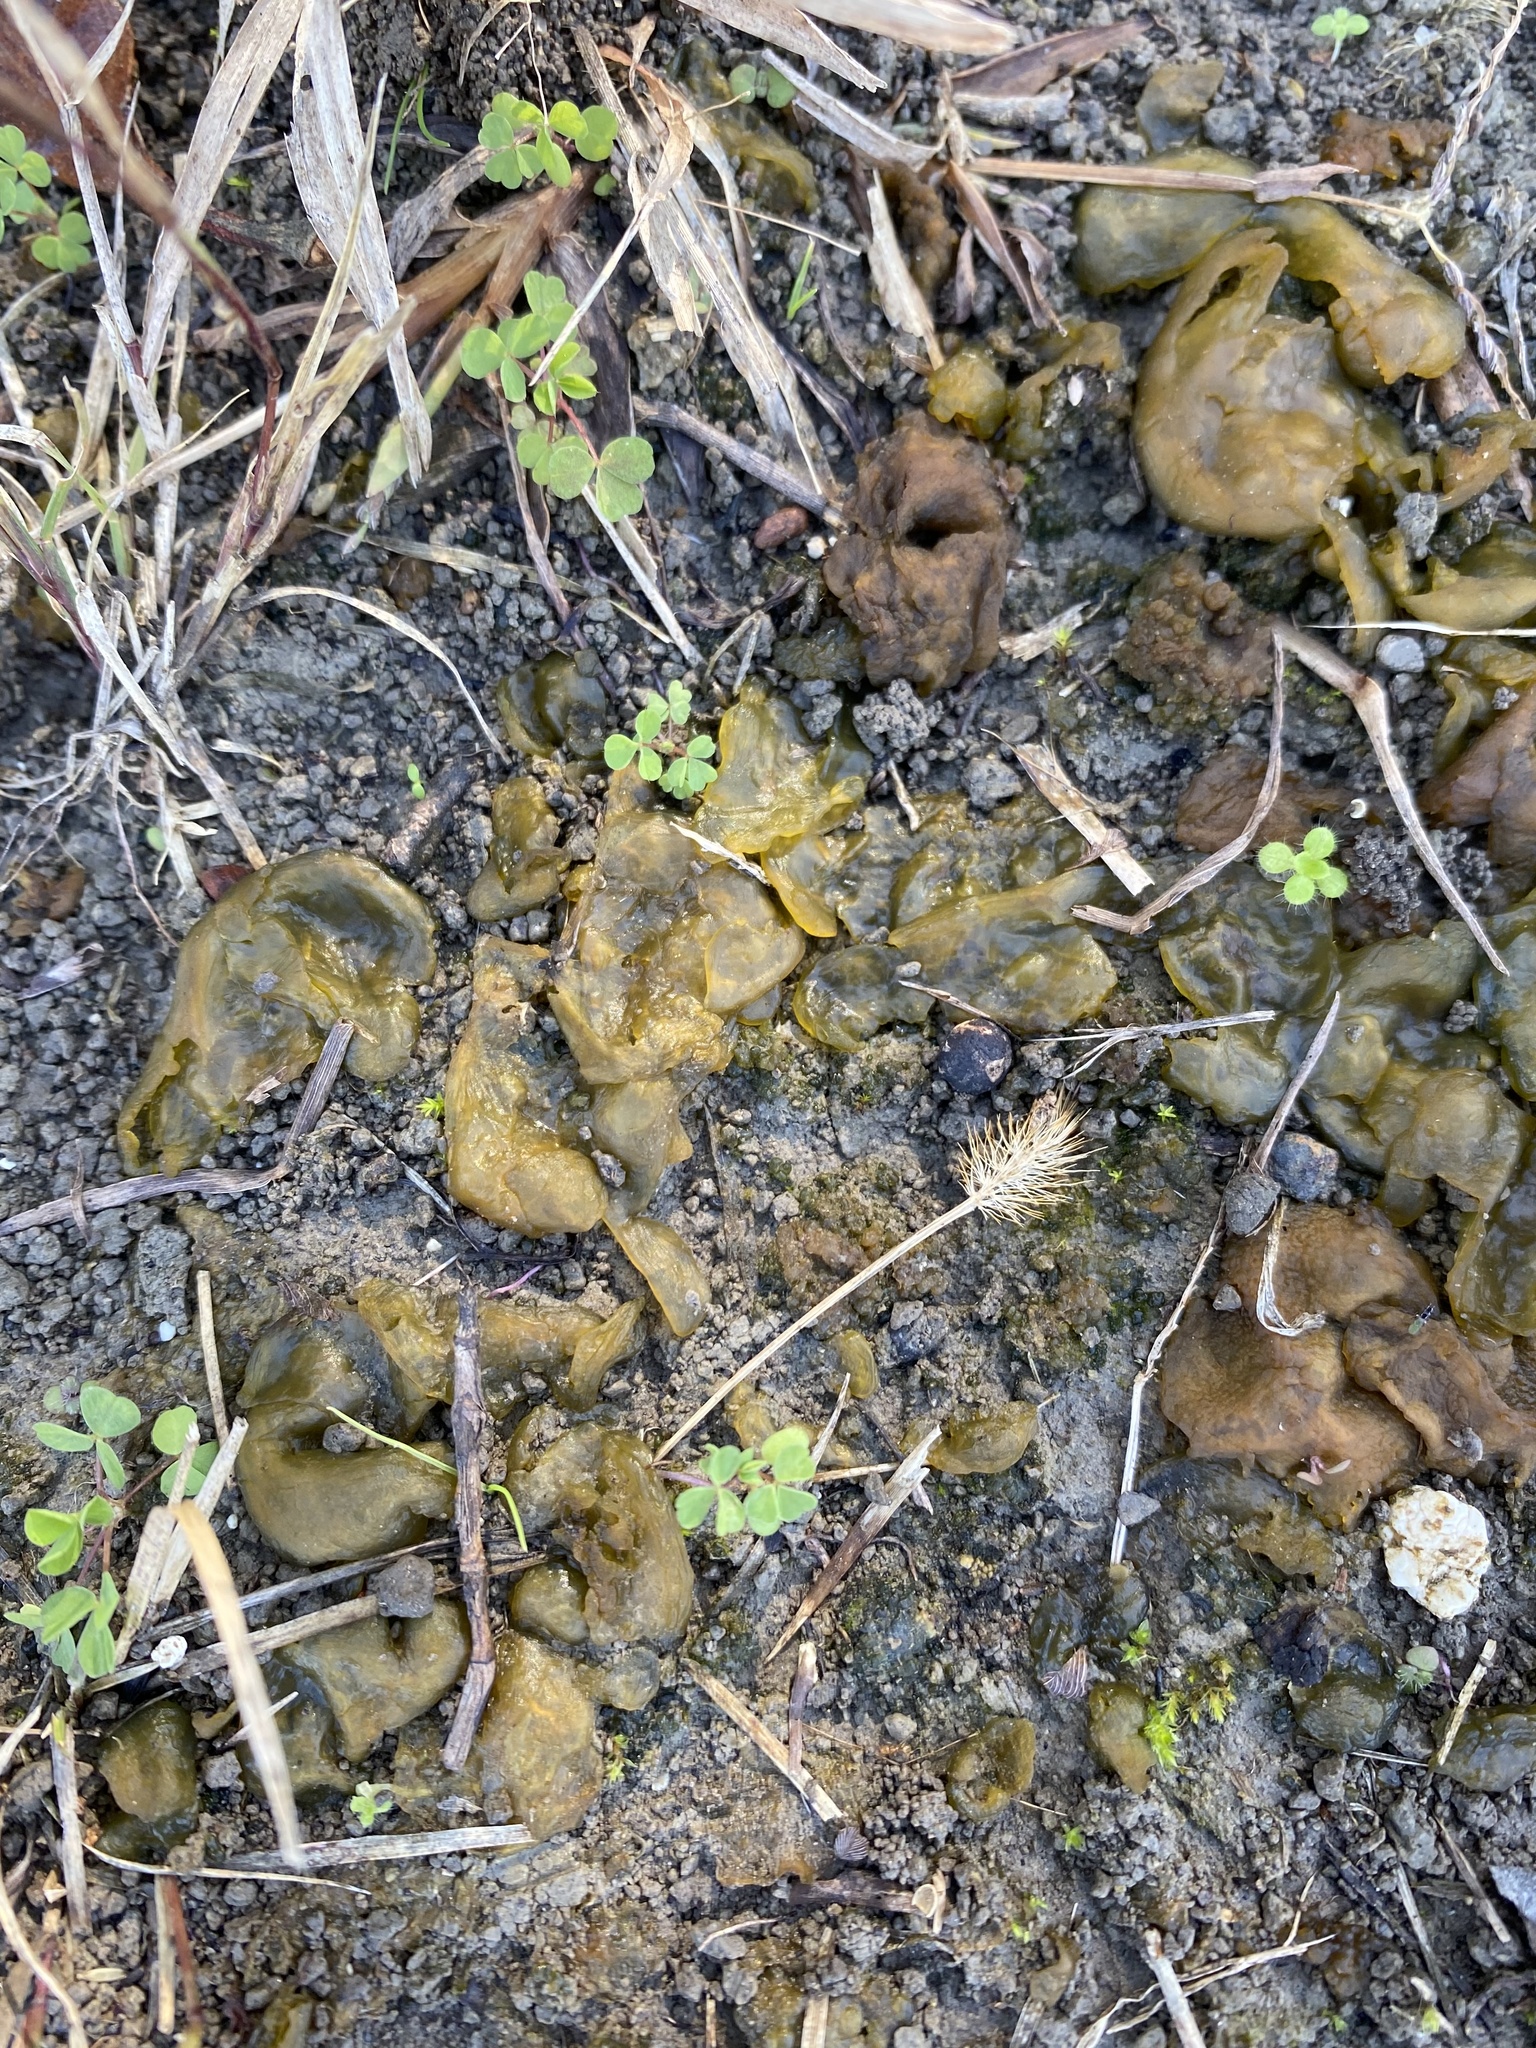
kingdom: Bacteria
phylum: Cyanobacteria
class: Cyanobacteriia
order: Cyanobacteriales
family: Nostocaceae
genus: Nostoc
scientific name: Nostoc commune
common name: Star jelly
